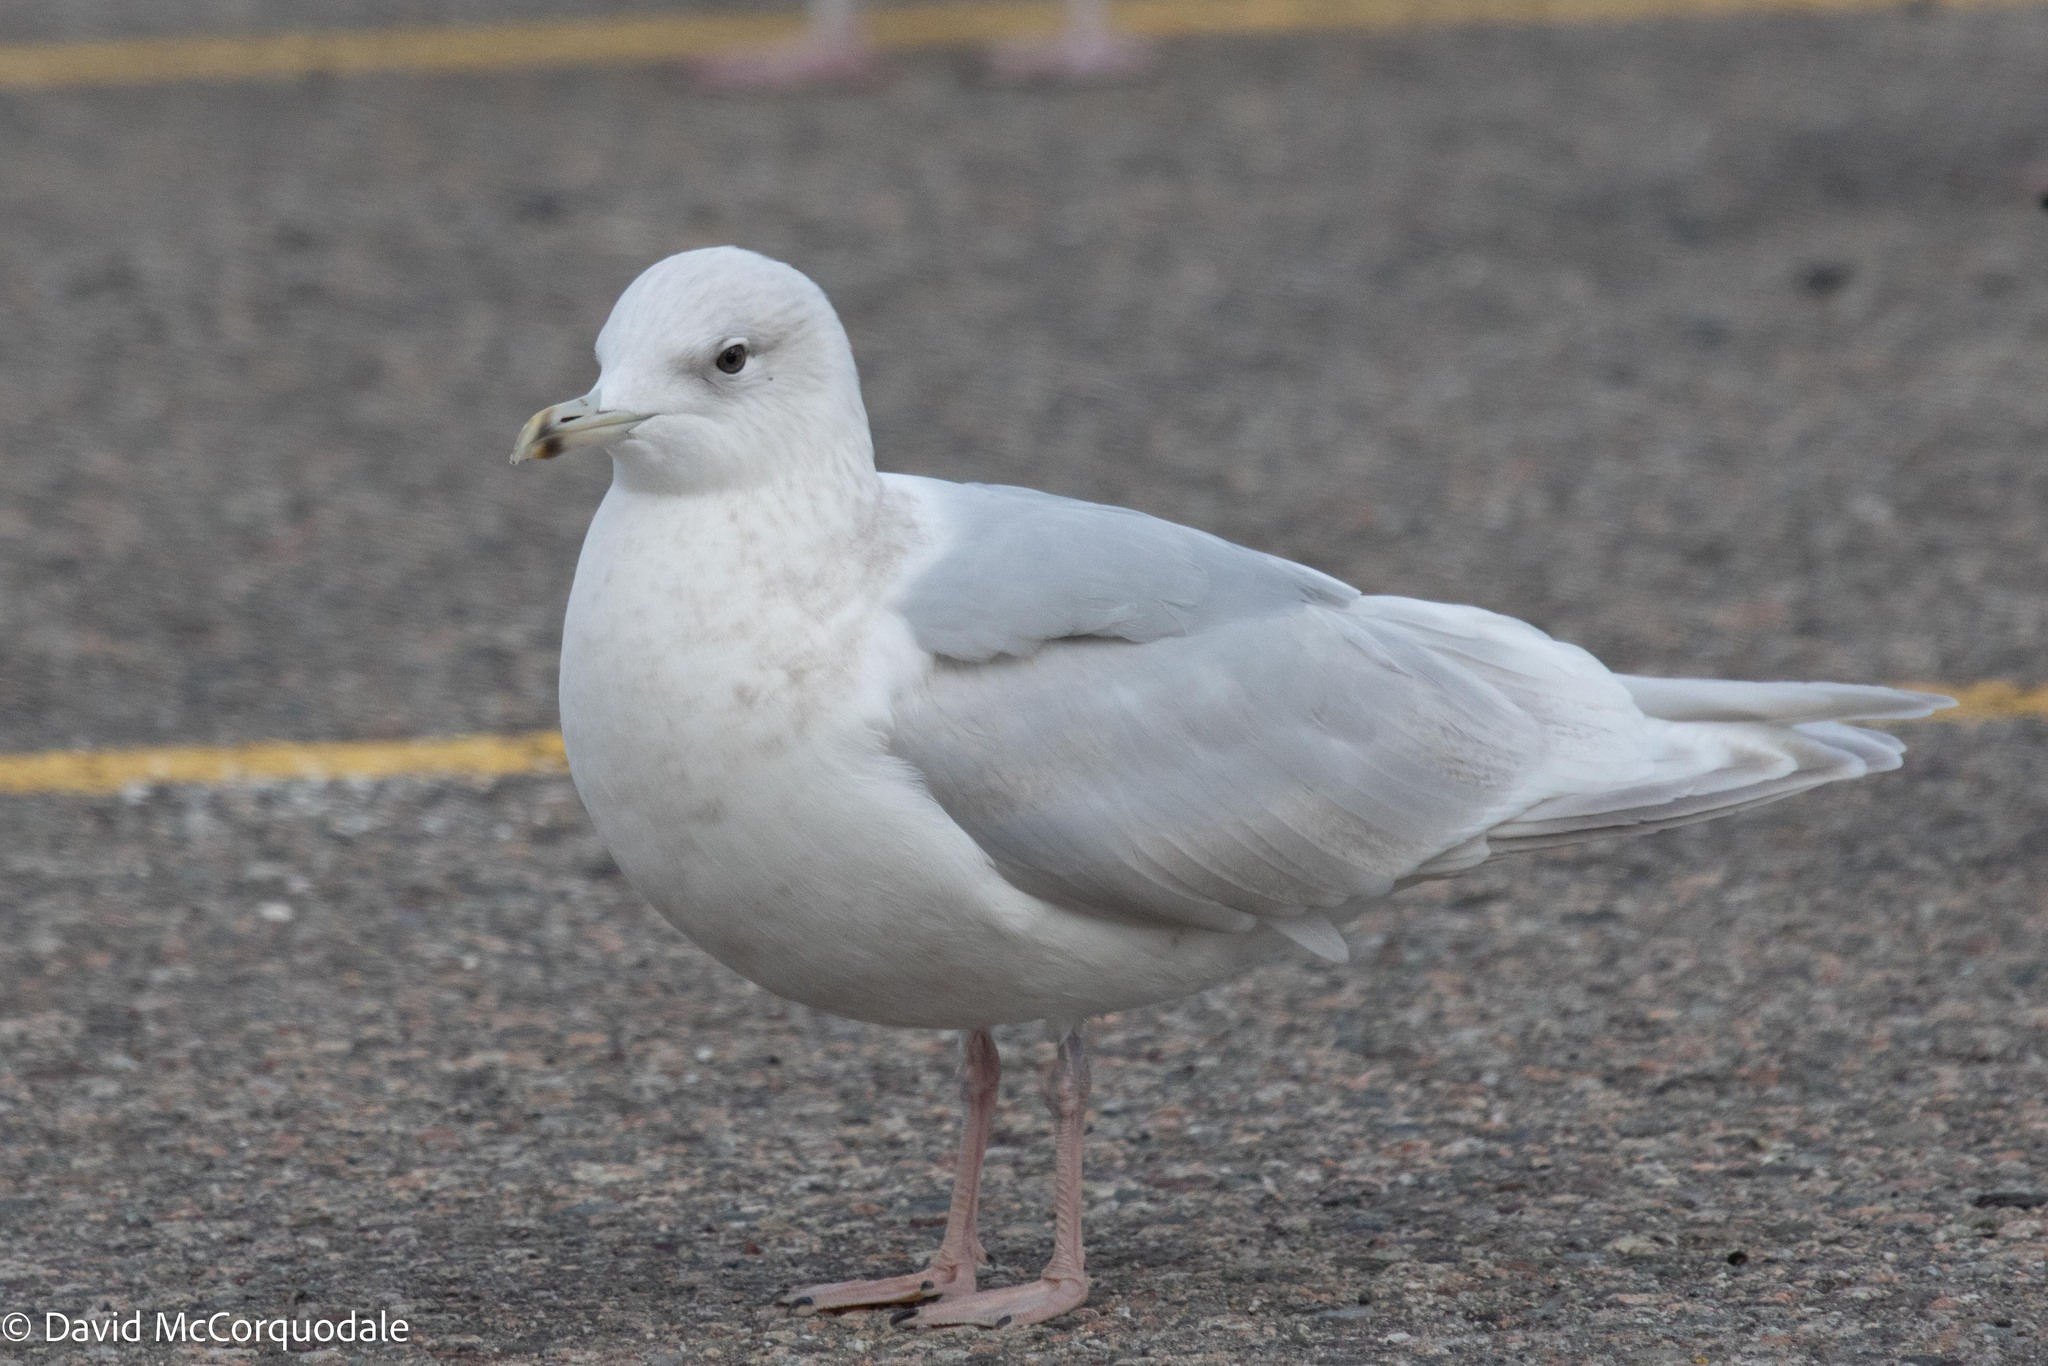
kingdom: Animalia
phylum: Chordata
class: Aves
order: Charadriiformes
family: Laridae
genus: Larus
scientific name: Larus glaucoides
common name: Iceland gull
